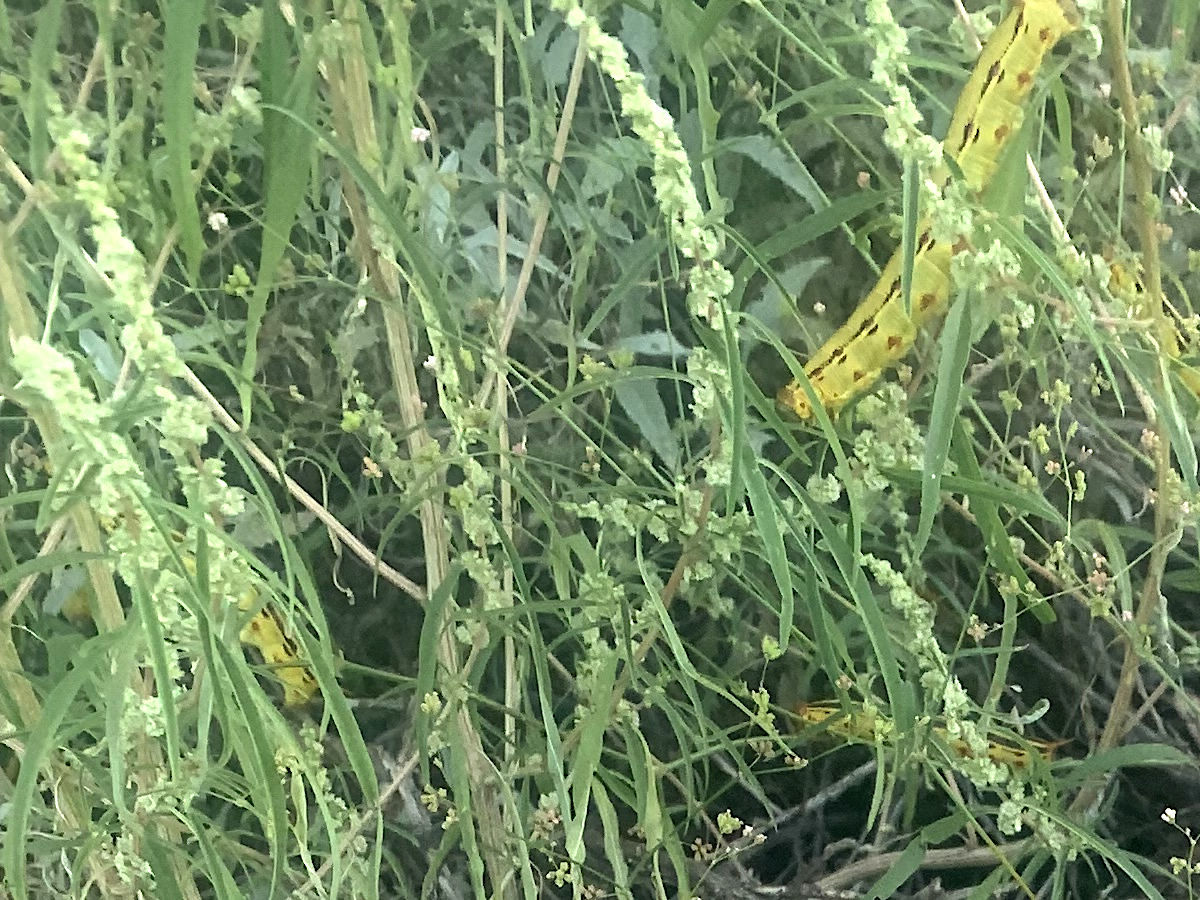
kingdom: Plantae
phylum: Tracheophyta
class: Magnoliopsida
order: Caryophyllales
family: Amaranthaceae
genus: Amaranthus
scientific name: Amaranthus fimbriatus
